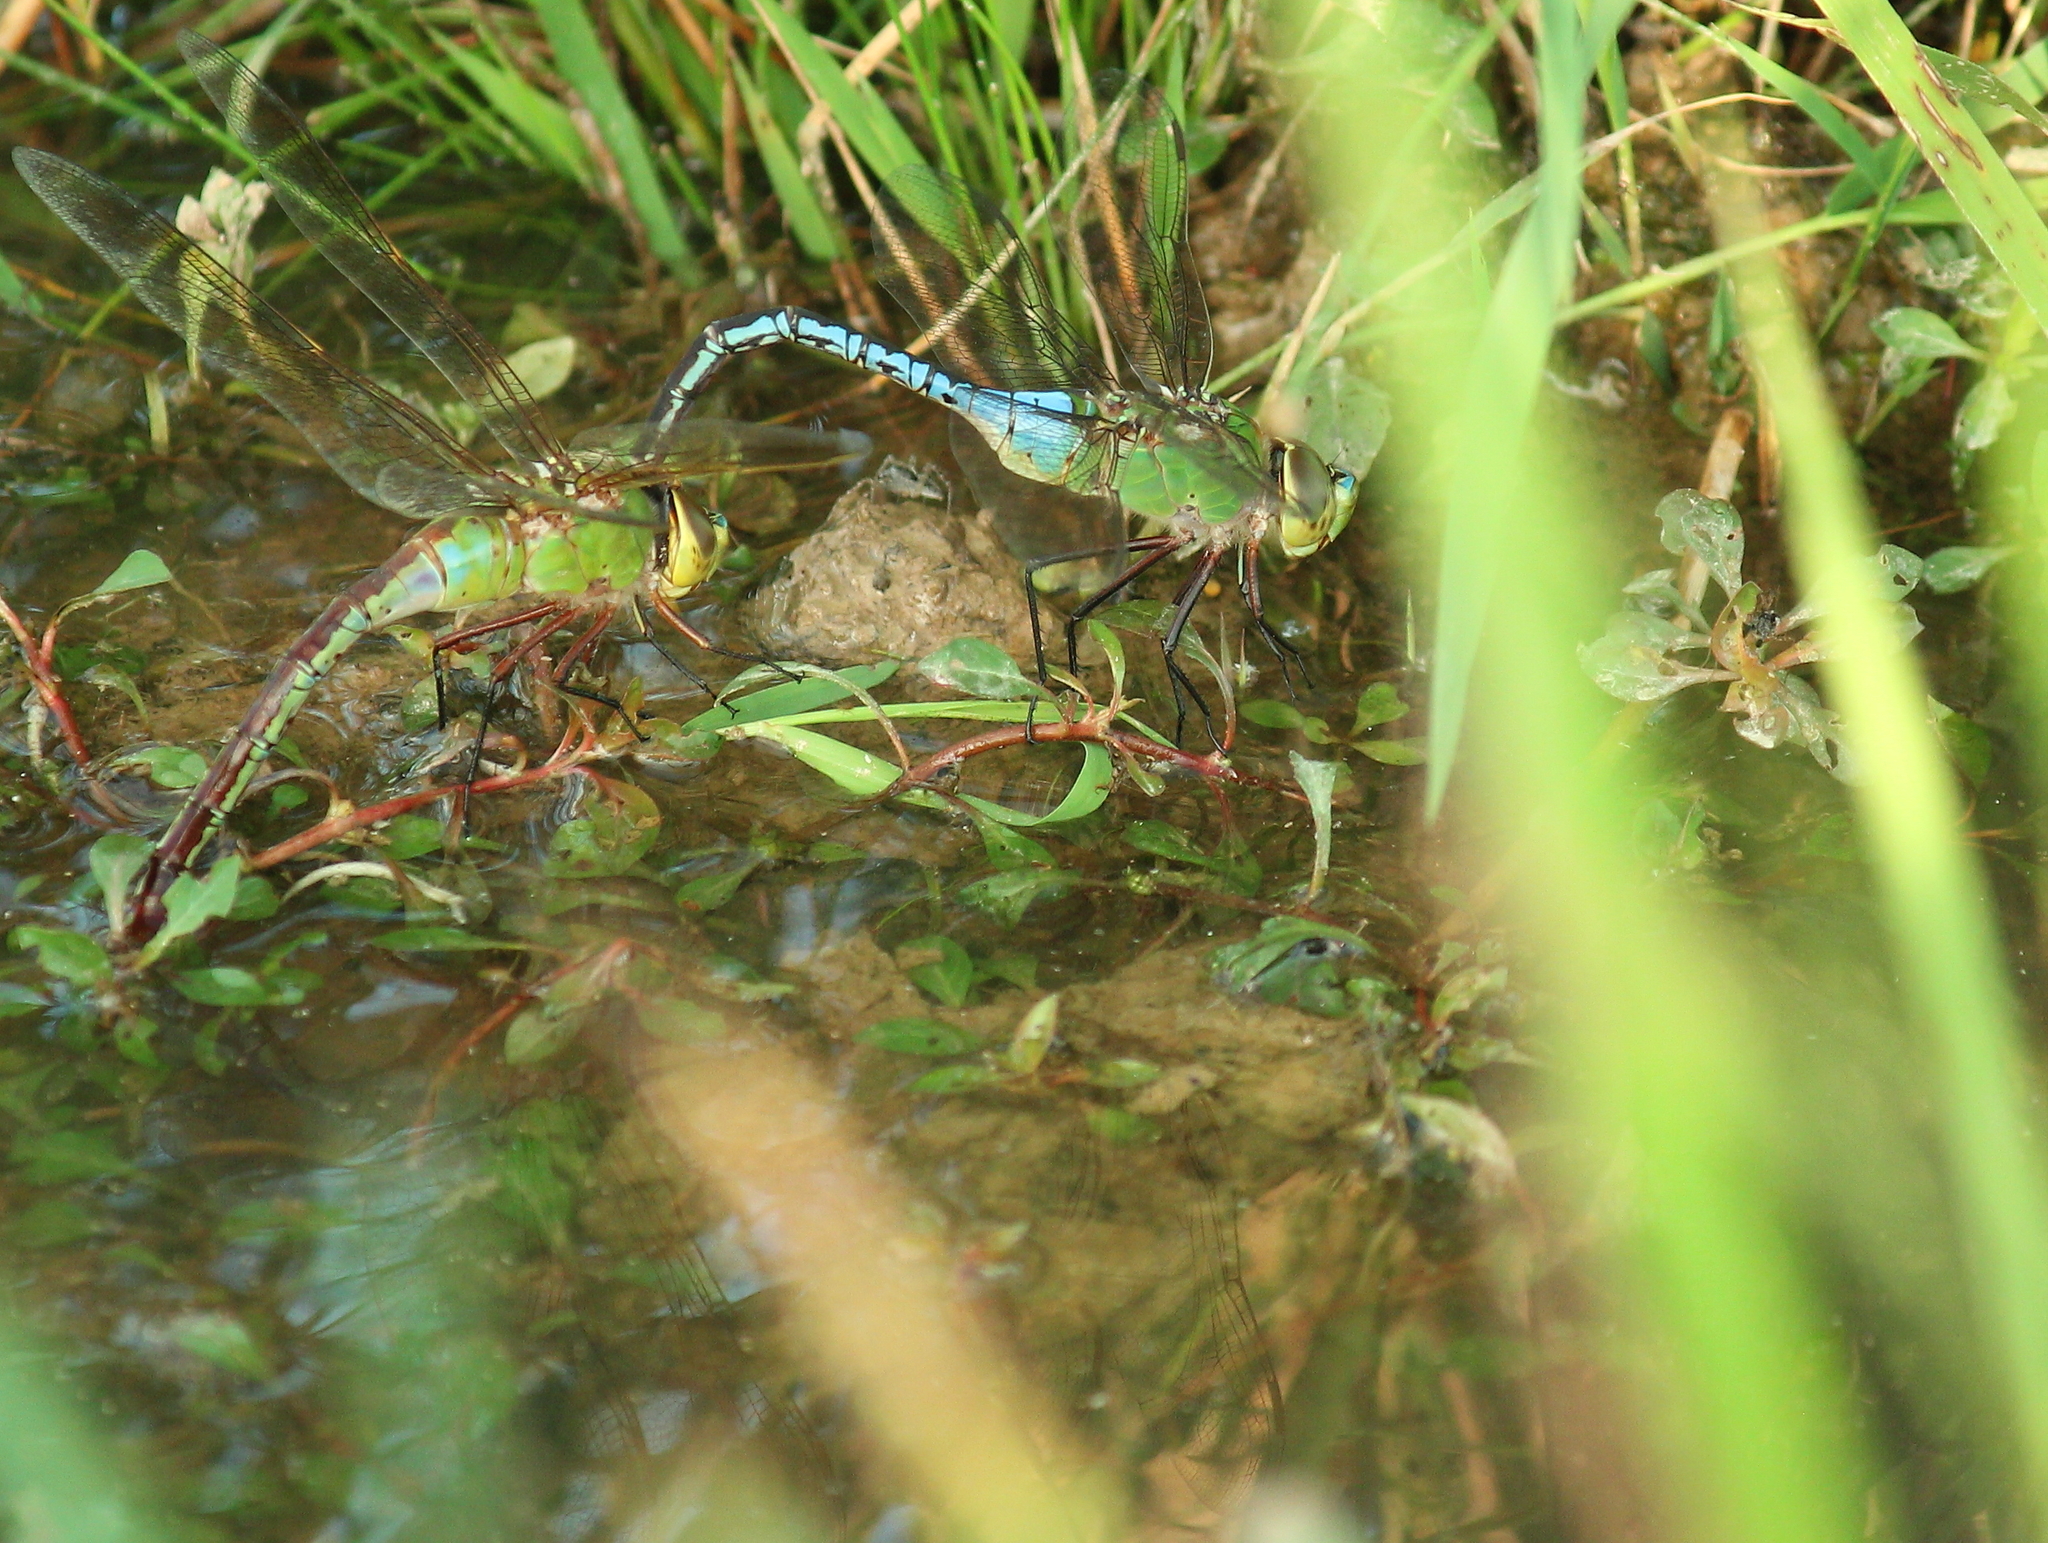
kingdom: Animalia
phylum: Arthropoda
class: Insecta
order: Odonata
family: Aeshnidae
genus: Anax
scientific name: Anax junius
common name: Common green darner
